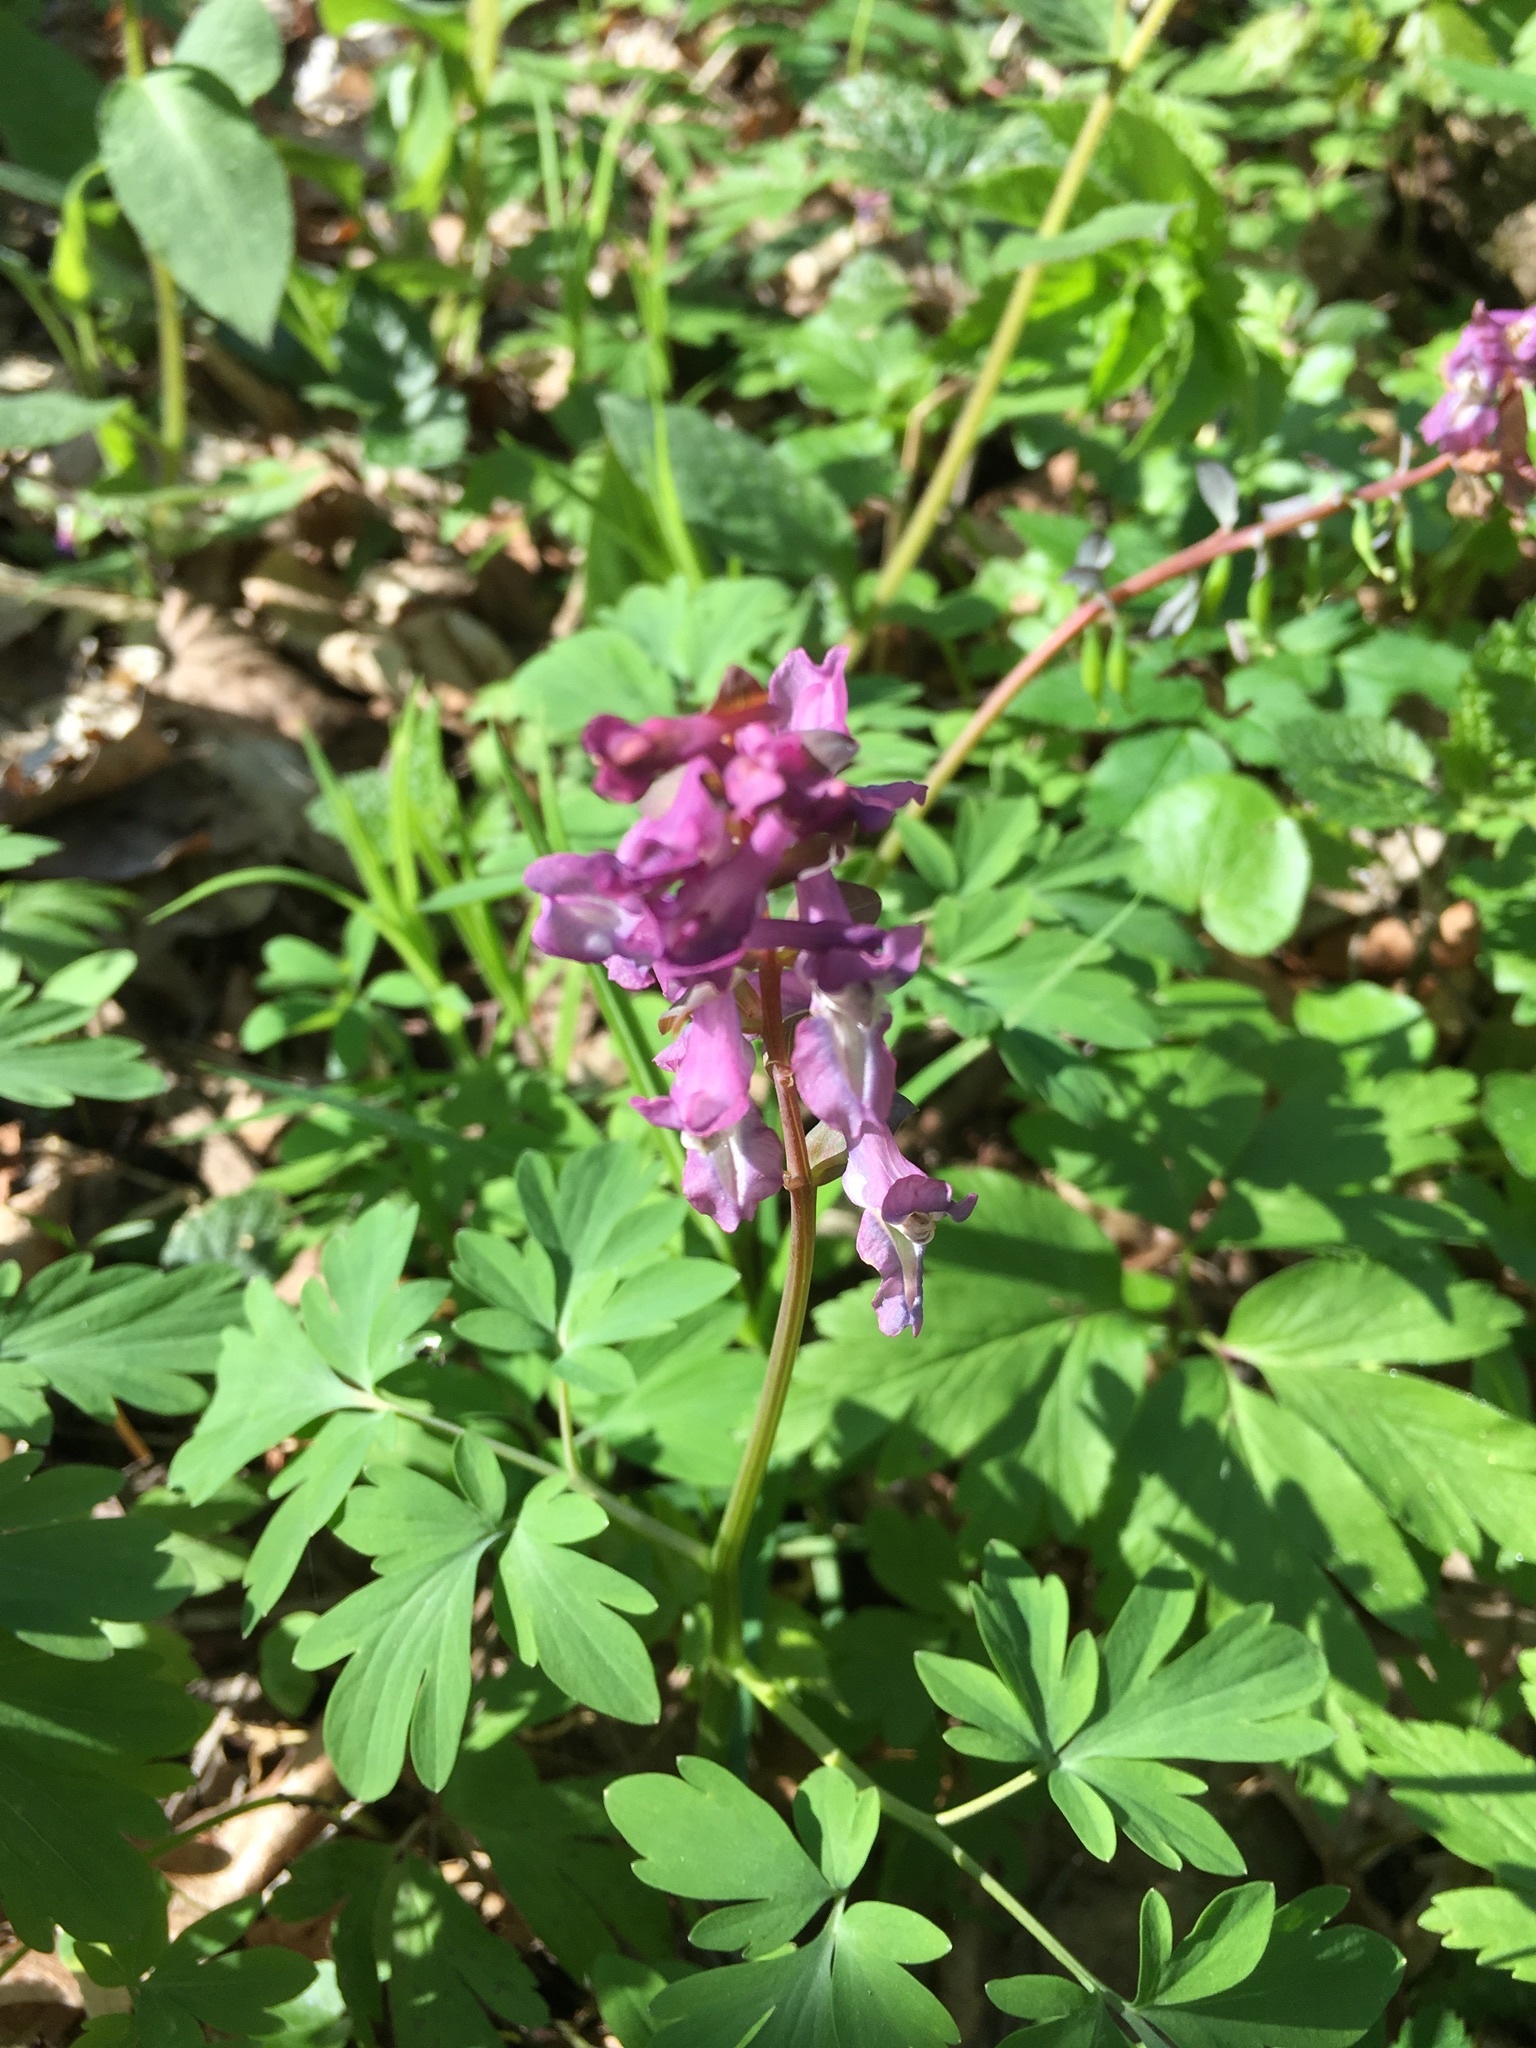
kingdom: Plantae
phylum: Tracheophyta
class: Magnoliopsida
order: Ranunculales
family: Papaveraceae
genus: Corydalis
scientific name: Corydalis cava
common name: Hollowroot
